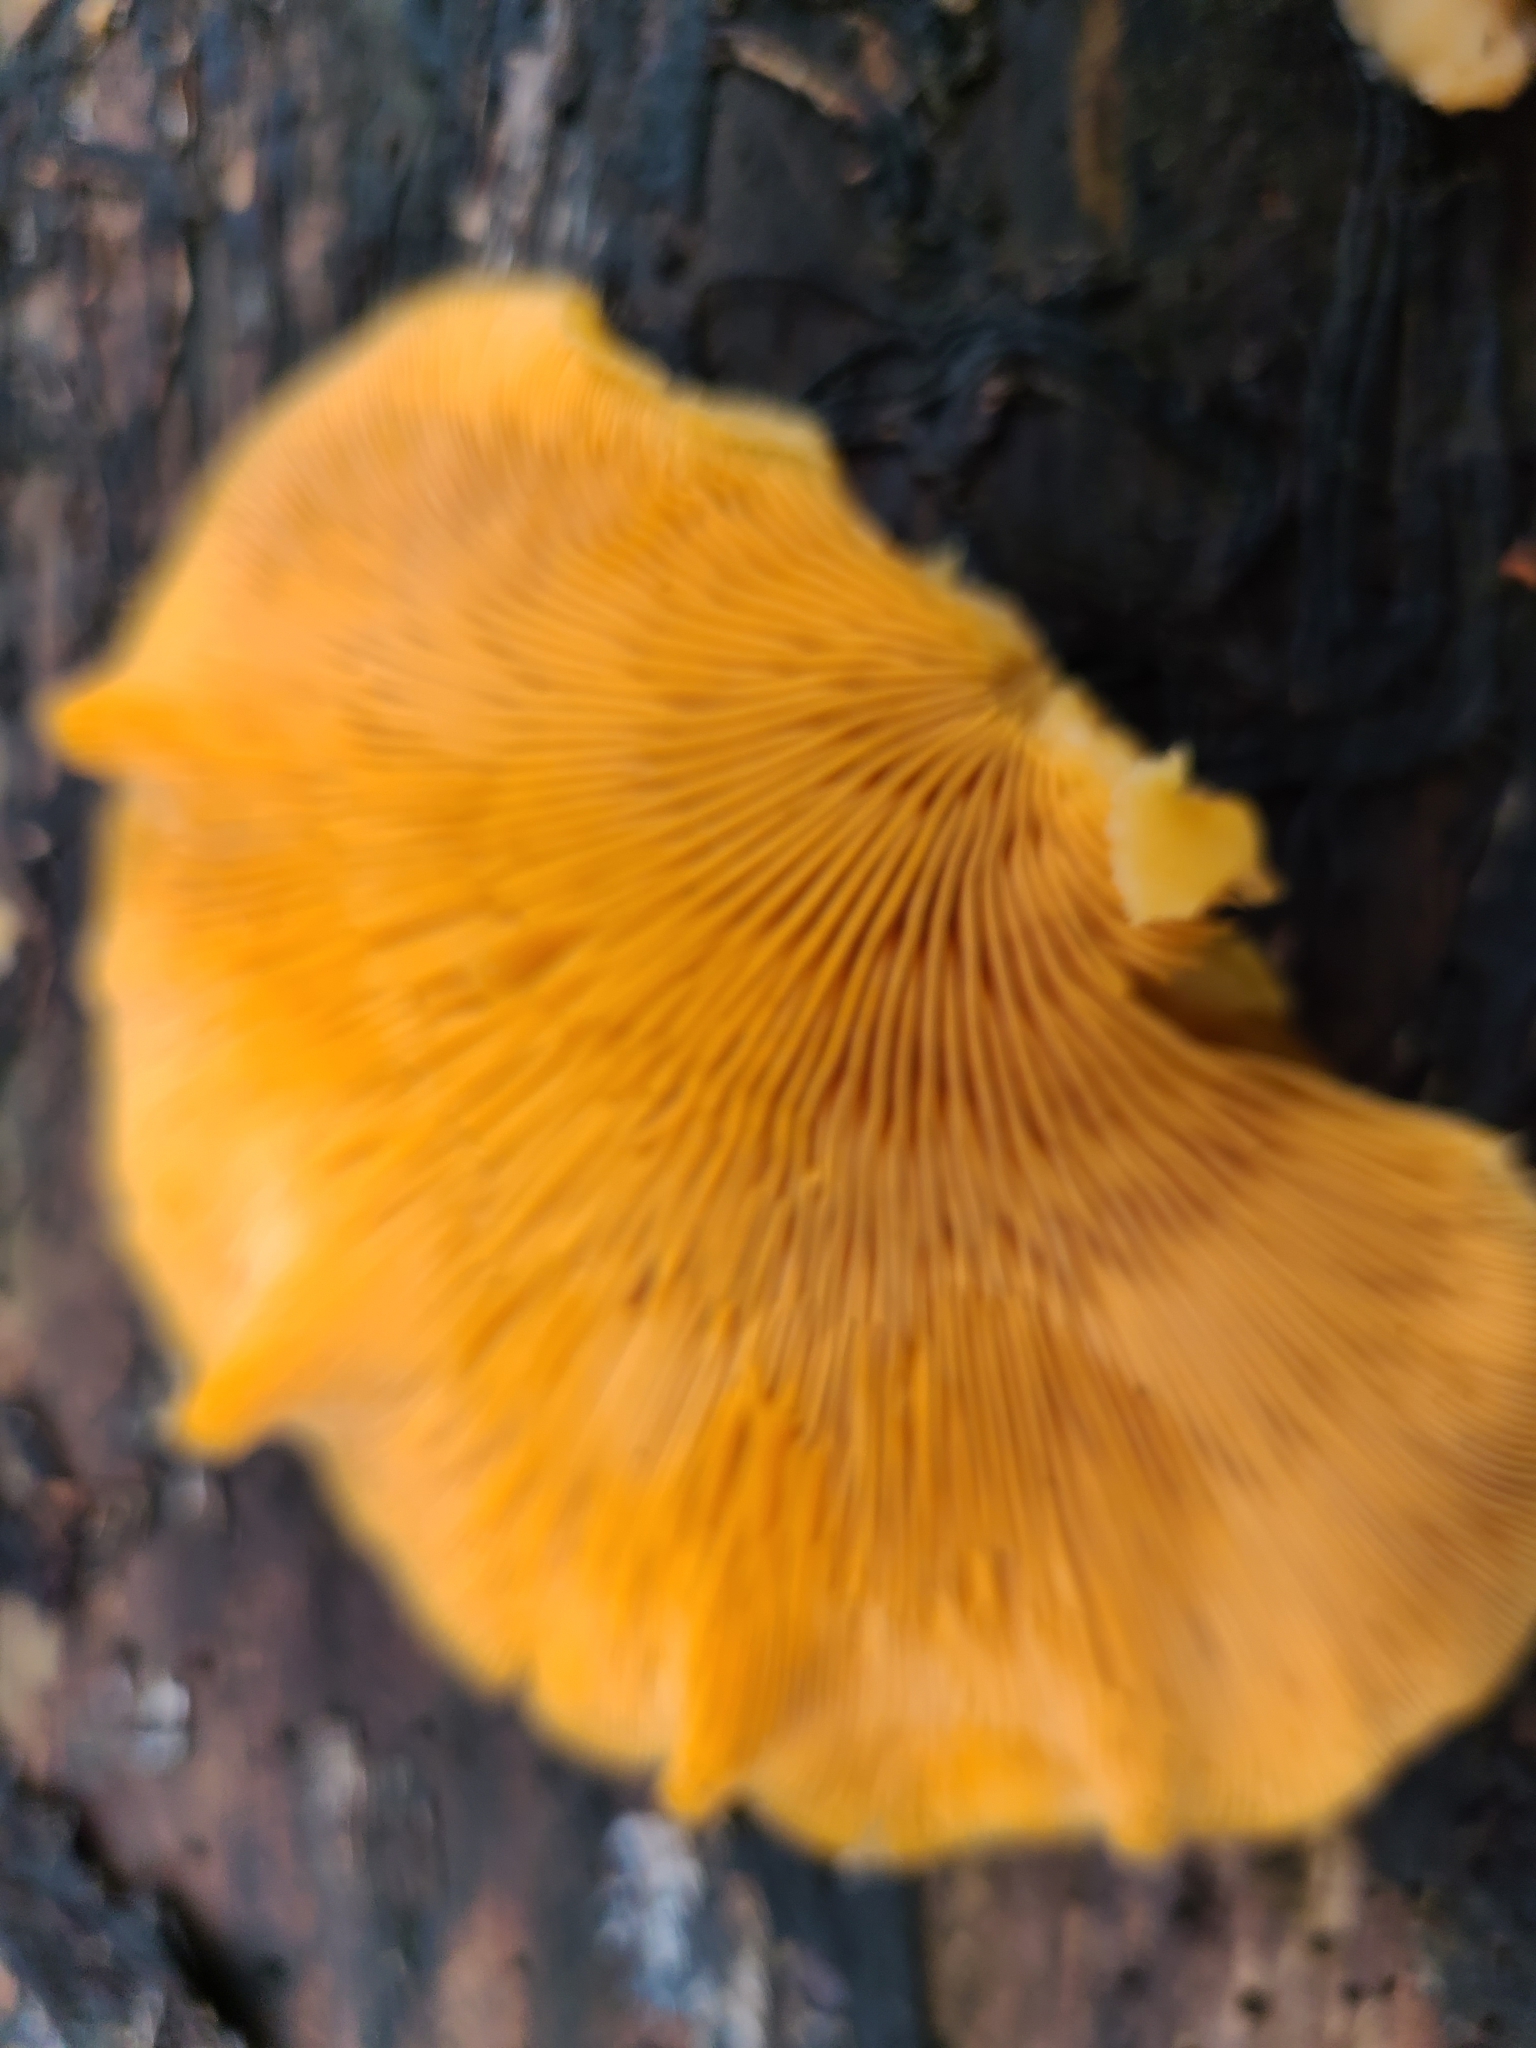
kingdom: Fungi
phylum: Basidiomycota
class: Agaricomycetes
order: Agaricales
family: Phyllotopsidaceae
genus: Phyllotopsis
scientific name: Phyllotopsis nidulans
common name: Orange mock oyster
